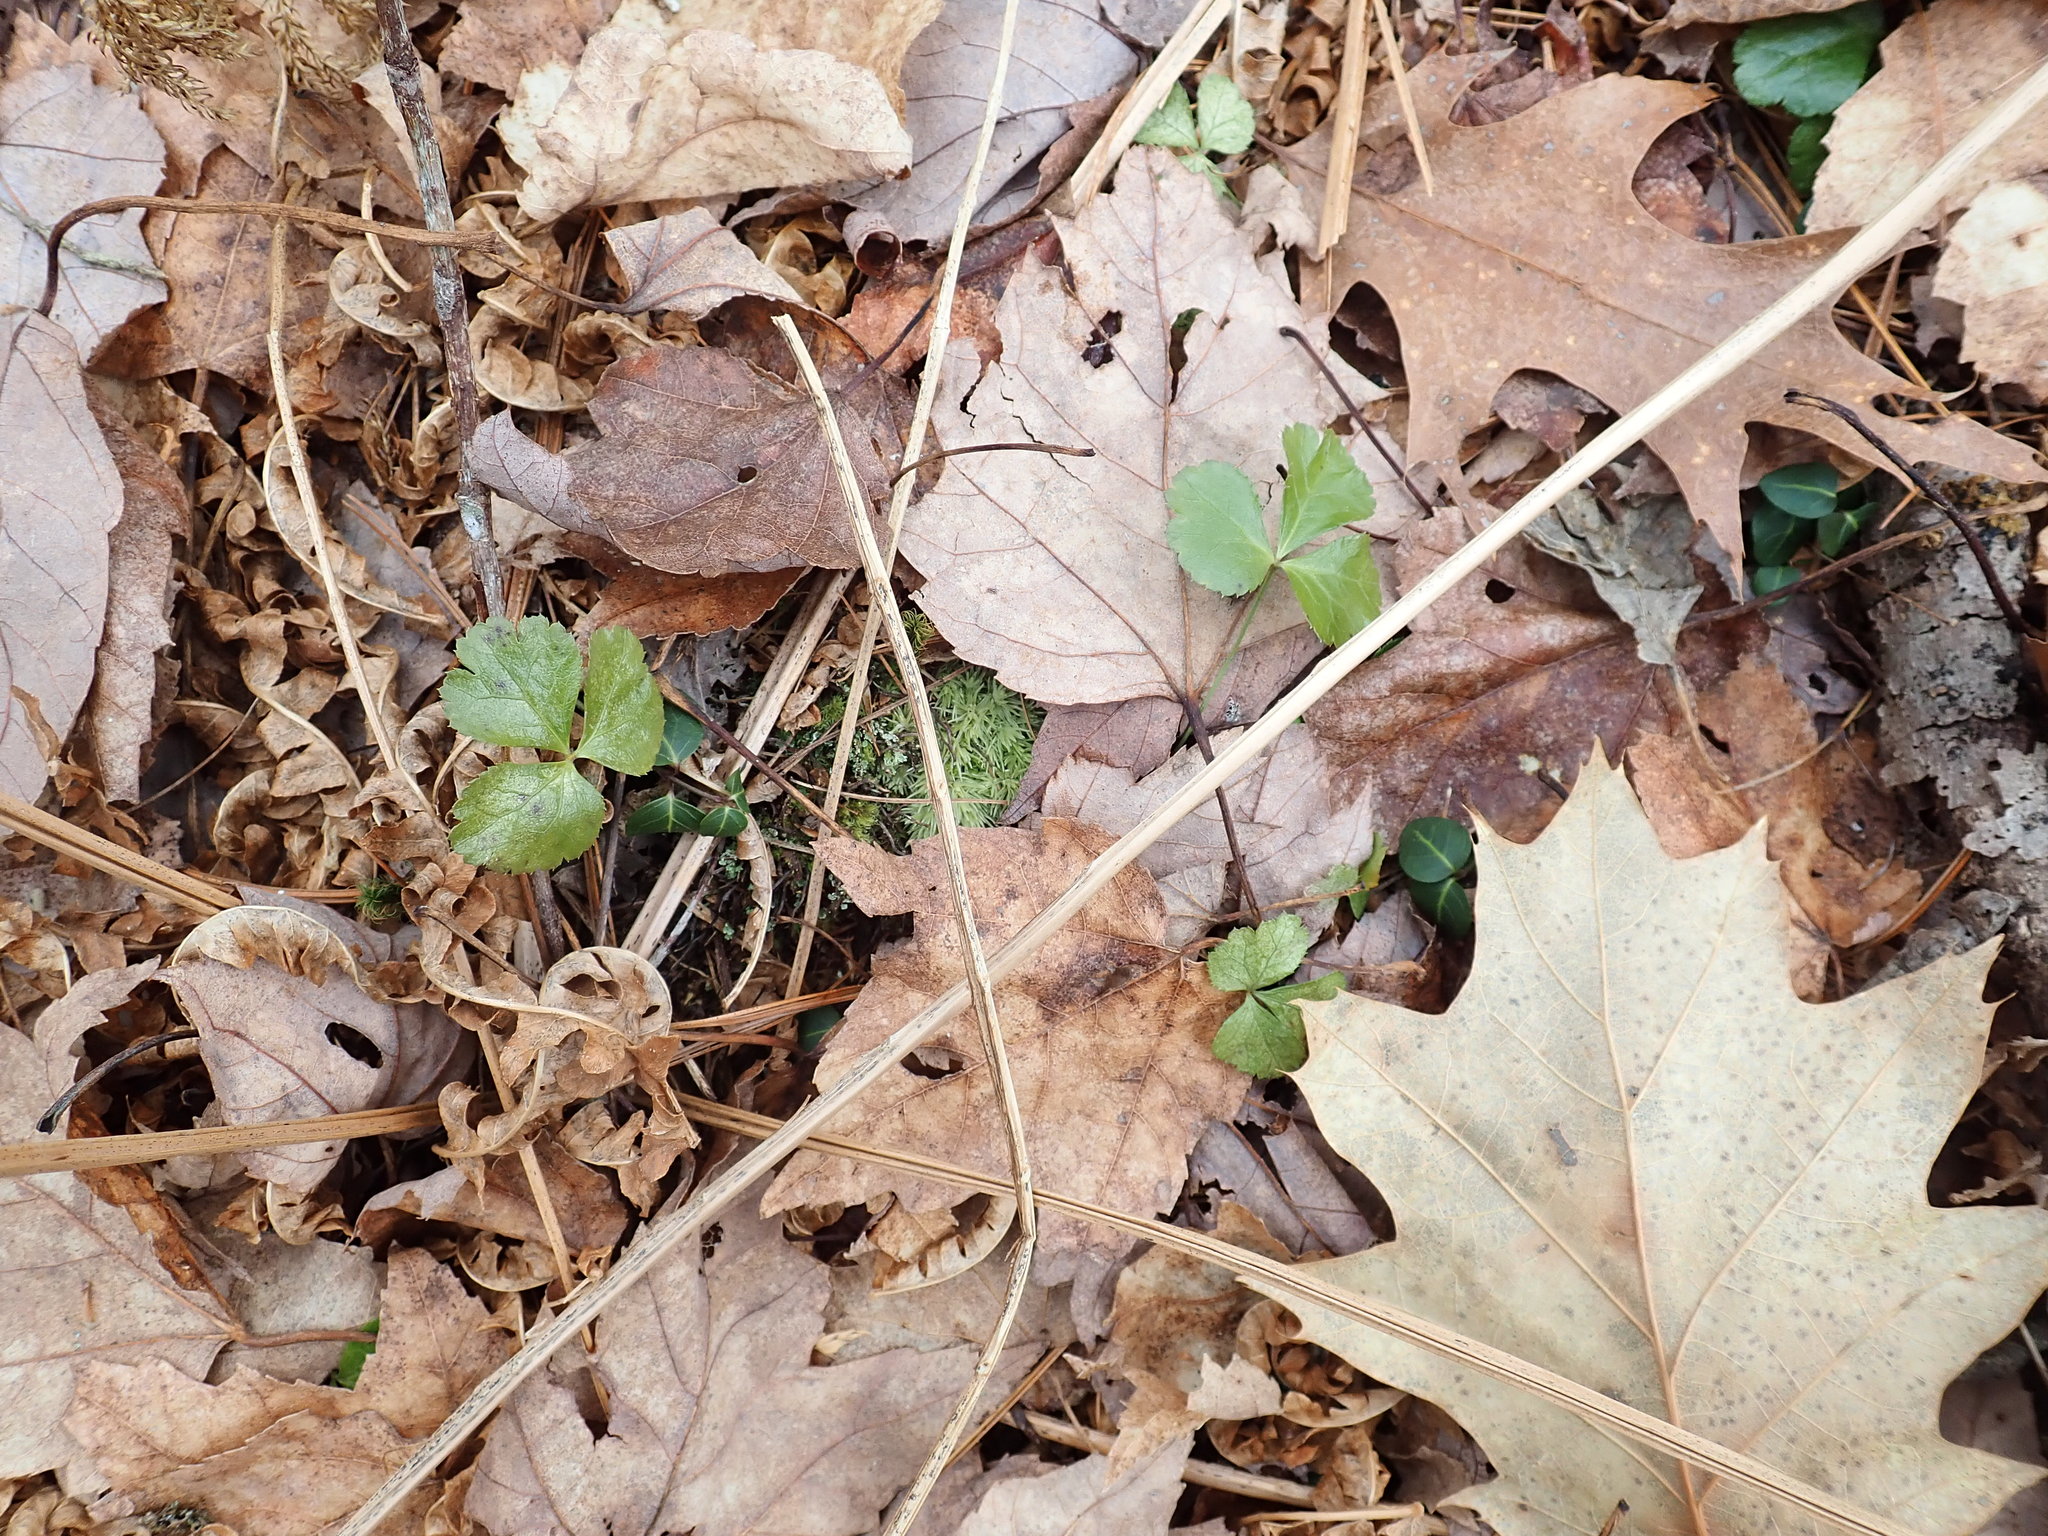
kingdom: Plantae
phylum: Tracheophyta
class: Magnoliopsida
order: Ranunculales
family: Ranunculaceae
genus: Coptis
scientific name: Coptis trifolia
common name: Canker-root
